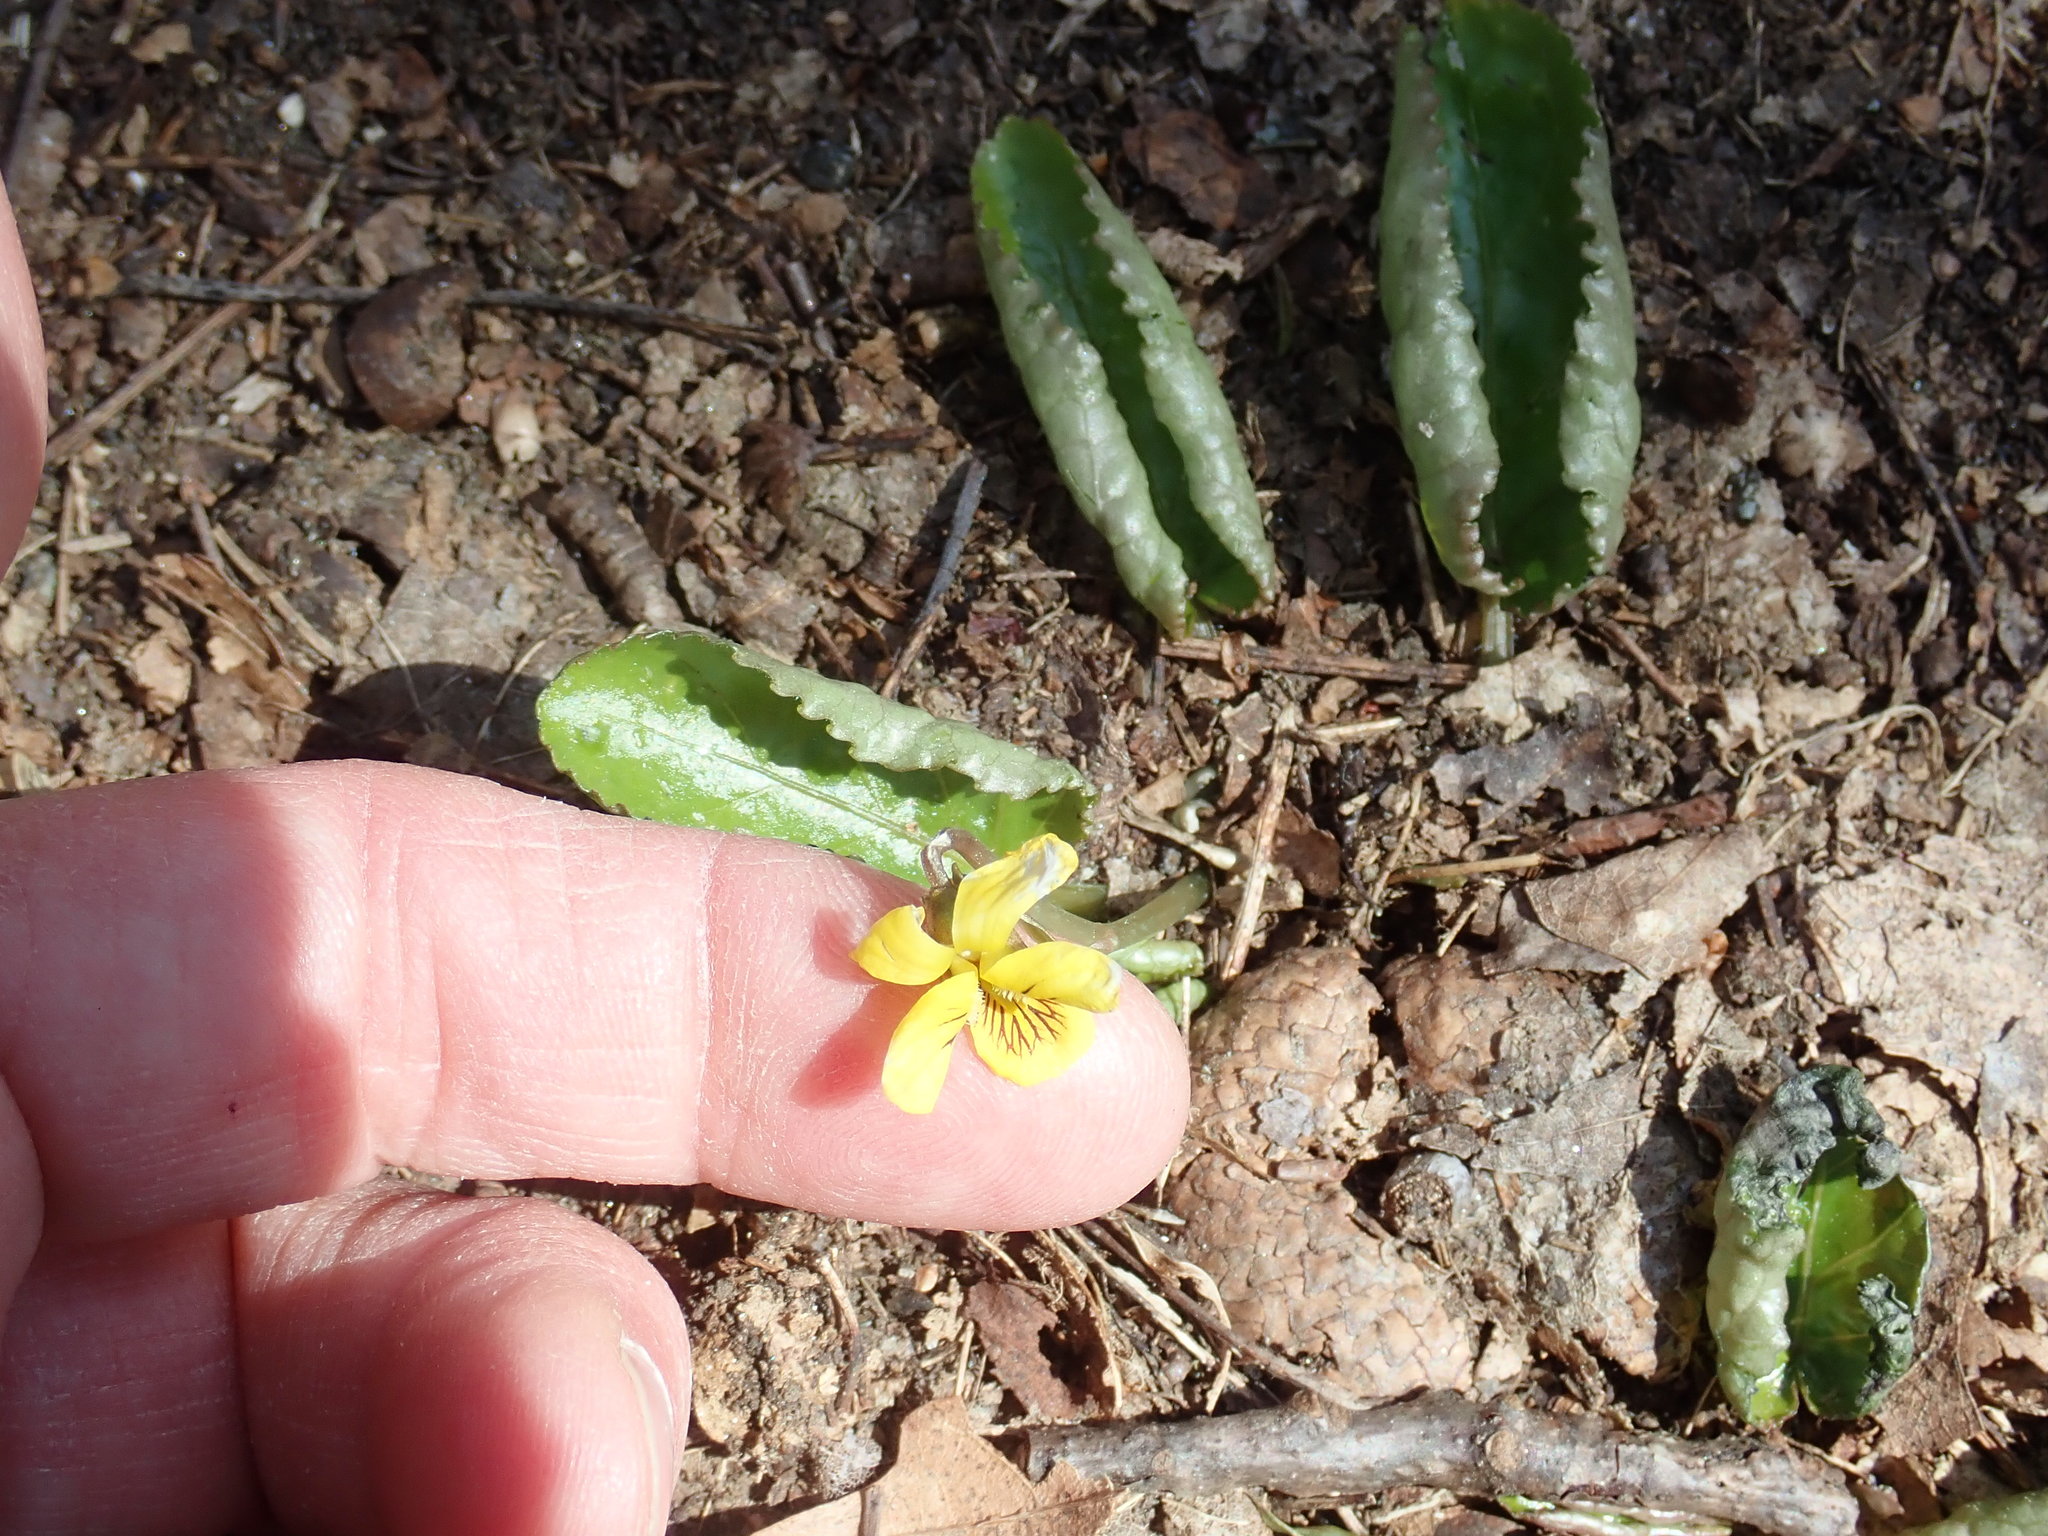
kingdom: Plantae
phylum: Tracheophyta
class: Magnoliopsida
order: Malpighiales
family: Violaceae
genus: Viola
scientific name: Viola rotundifolia
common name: Early yellow violet
